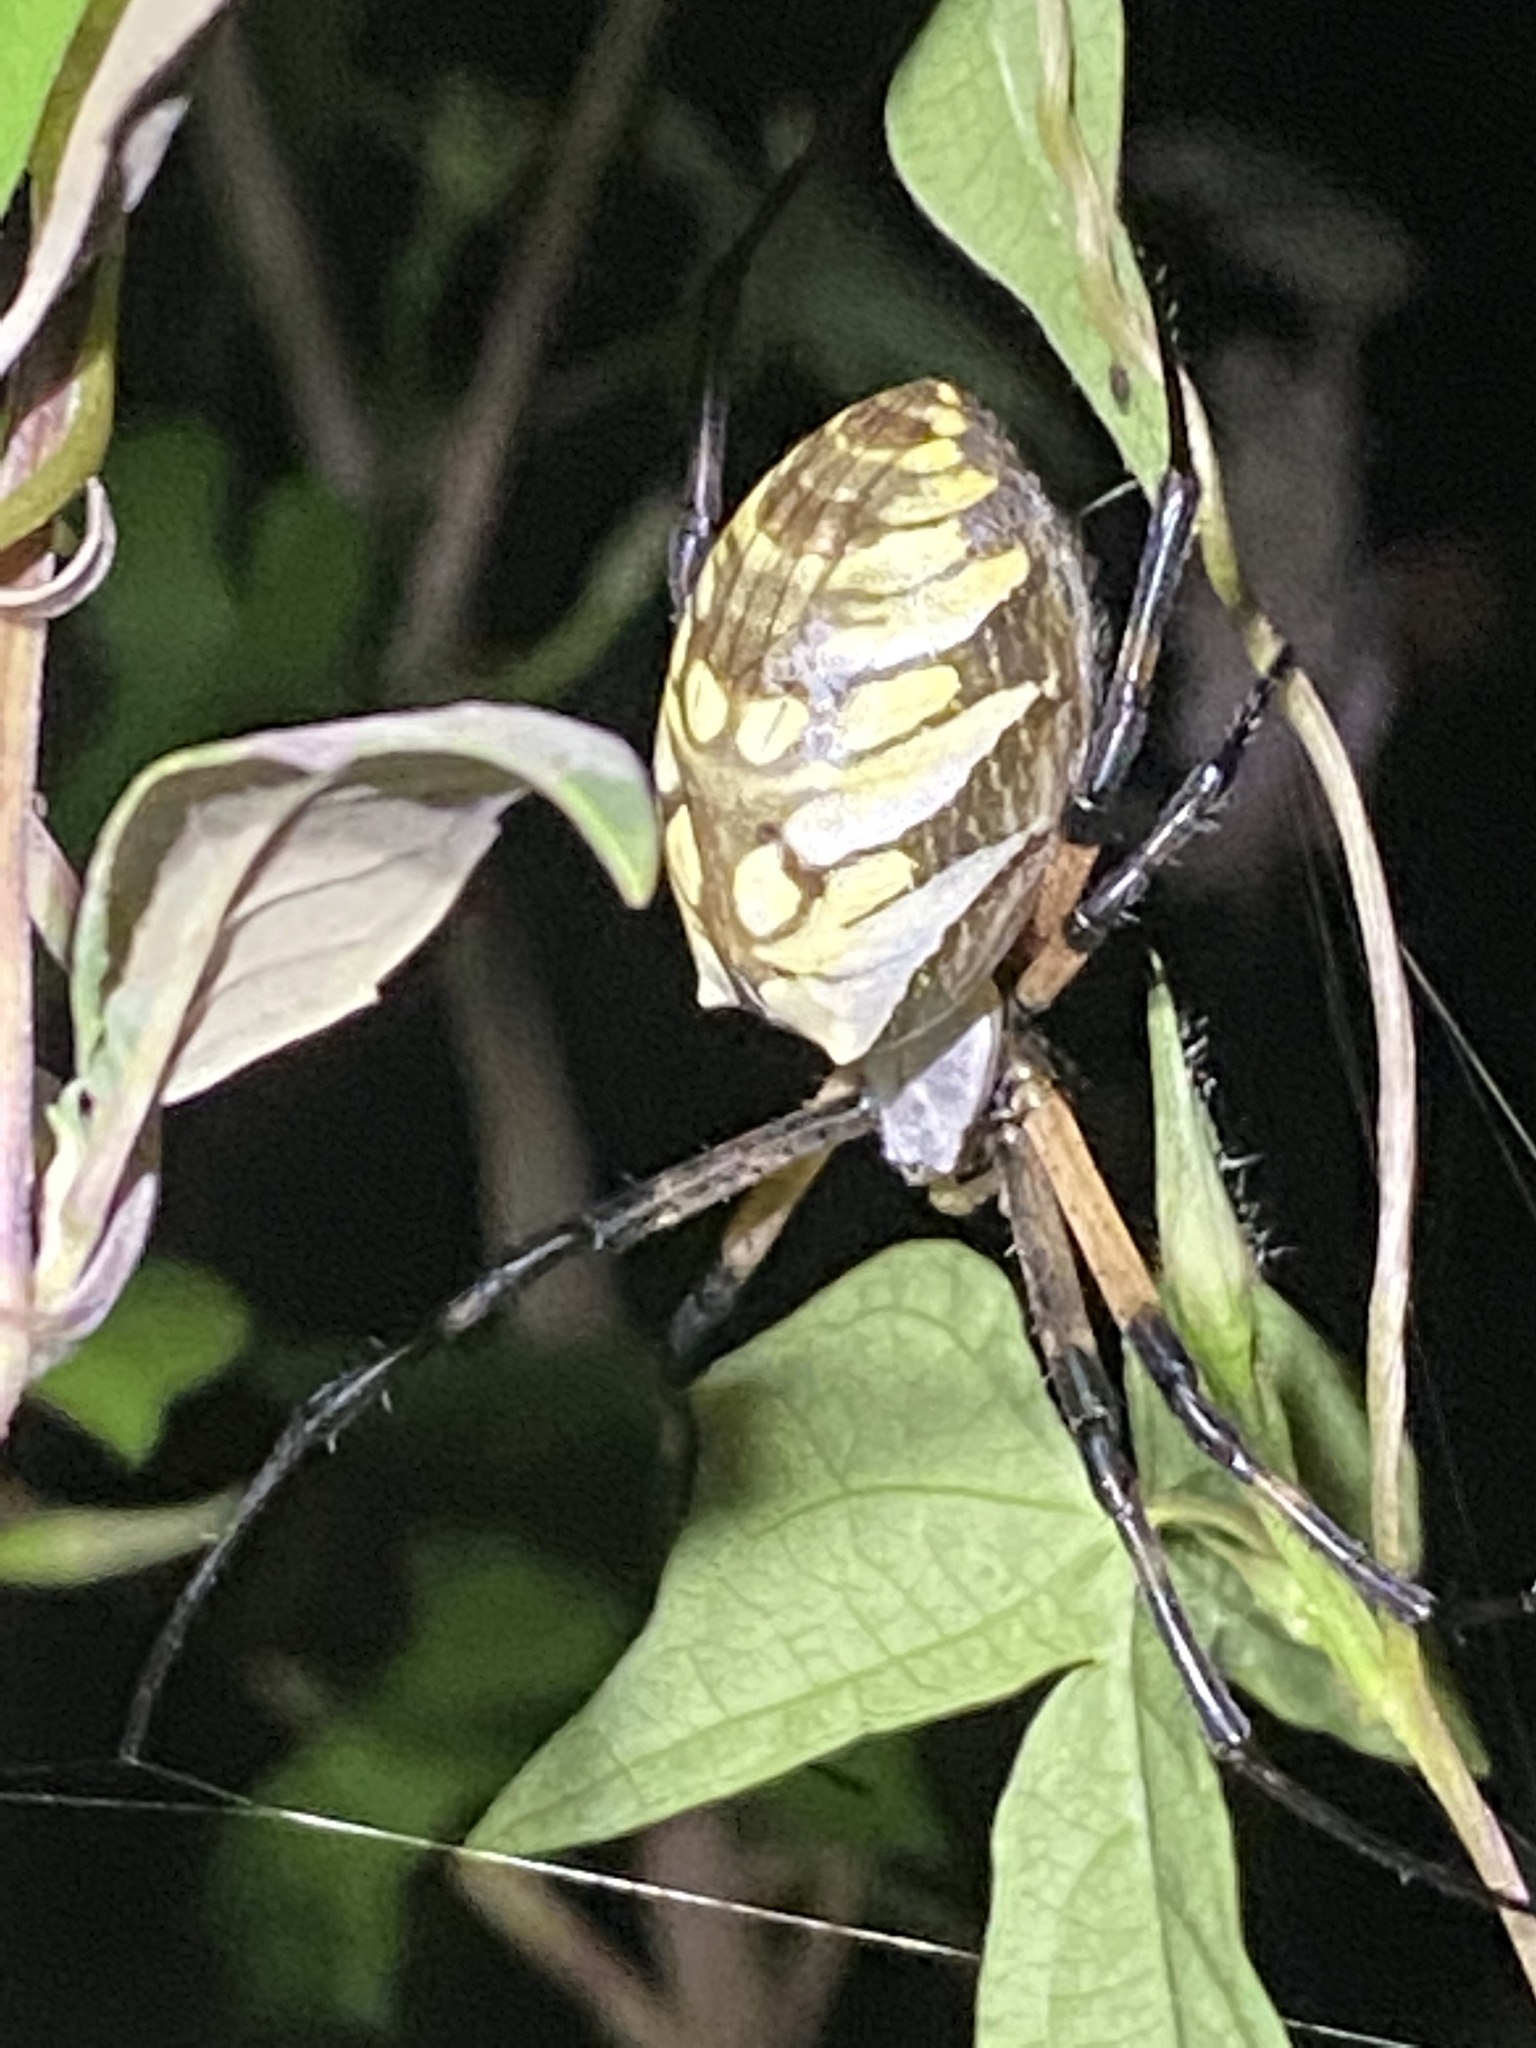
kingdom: Animalia
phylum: Arthropoda
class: Arachnida
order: Araneae
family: Araneidae
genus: Argiope
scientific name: Argiope aurantia
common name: Orb weavers
